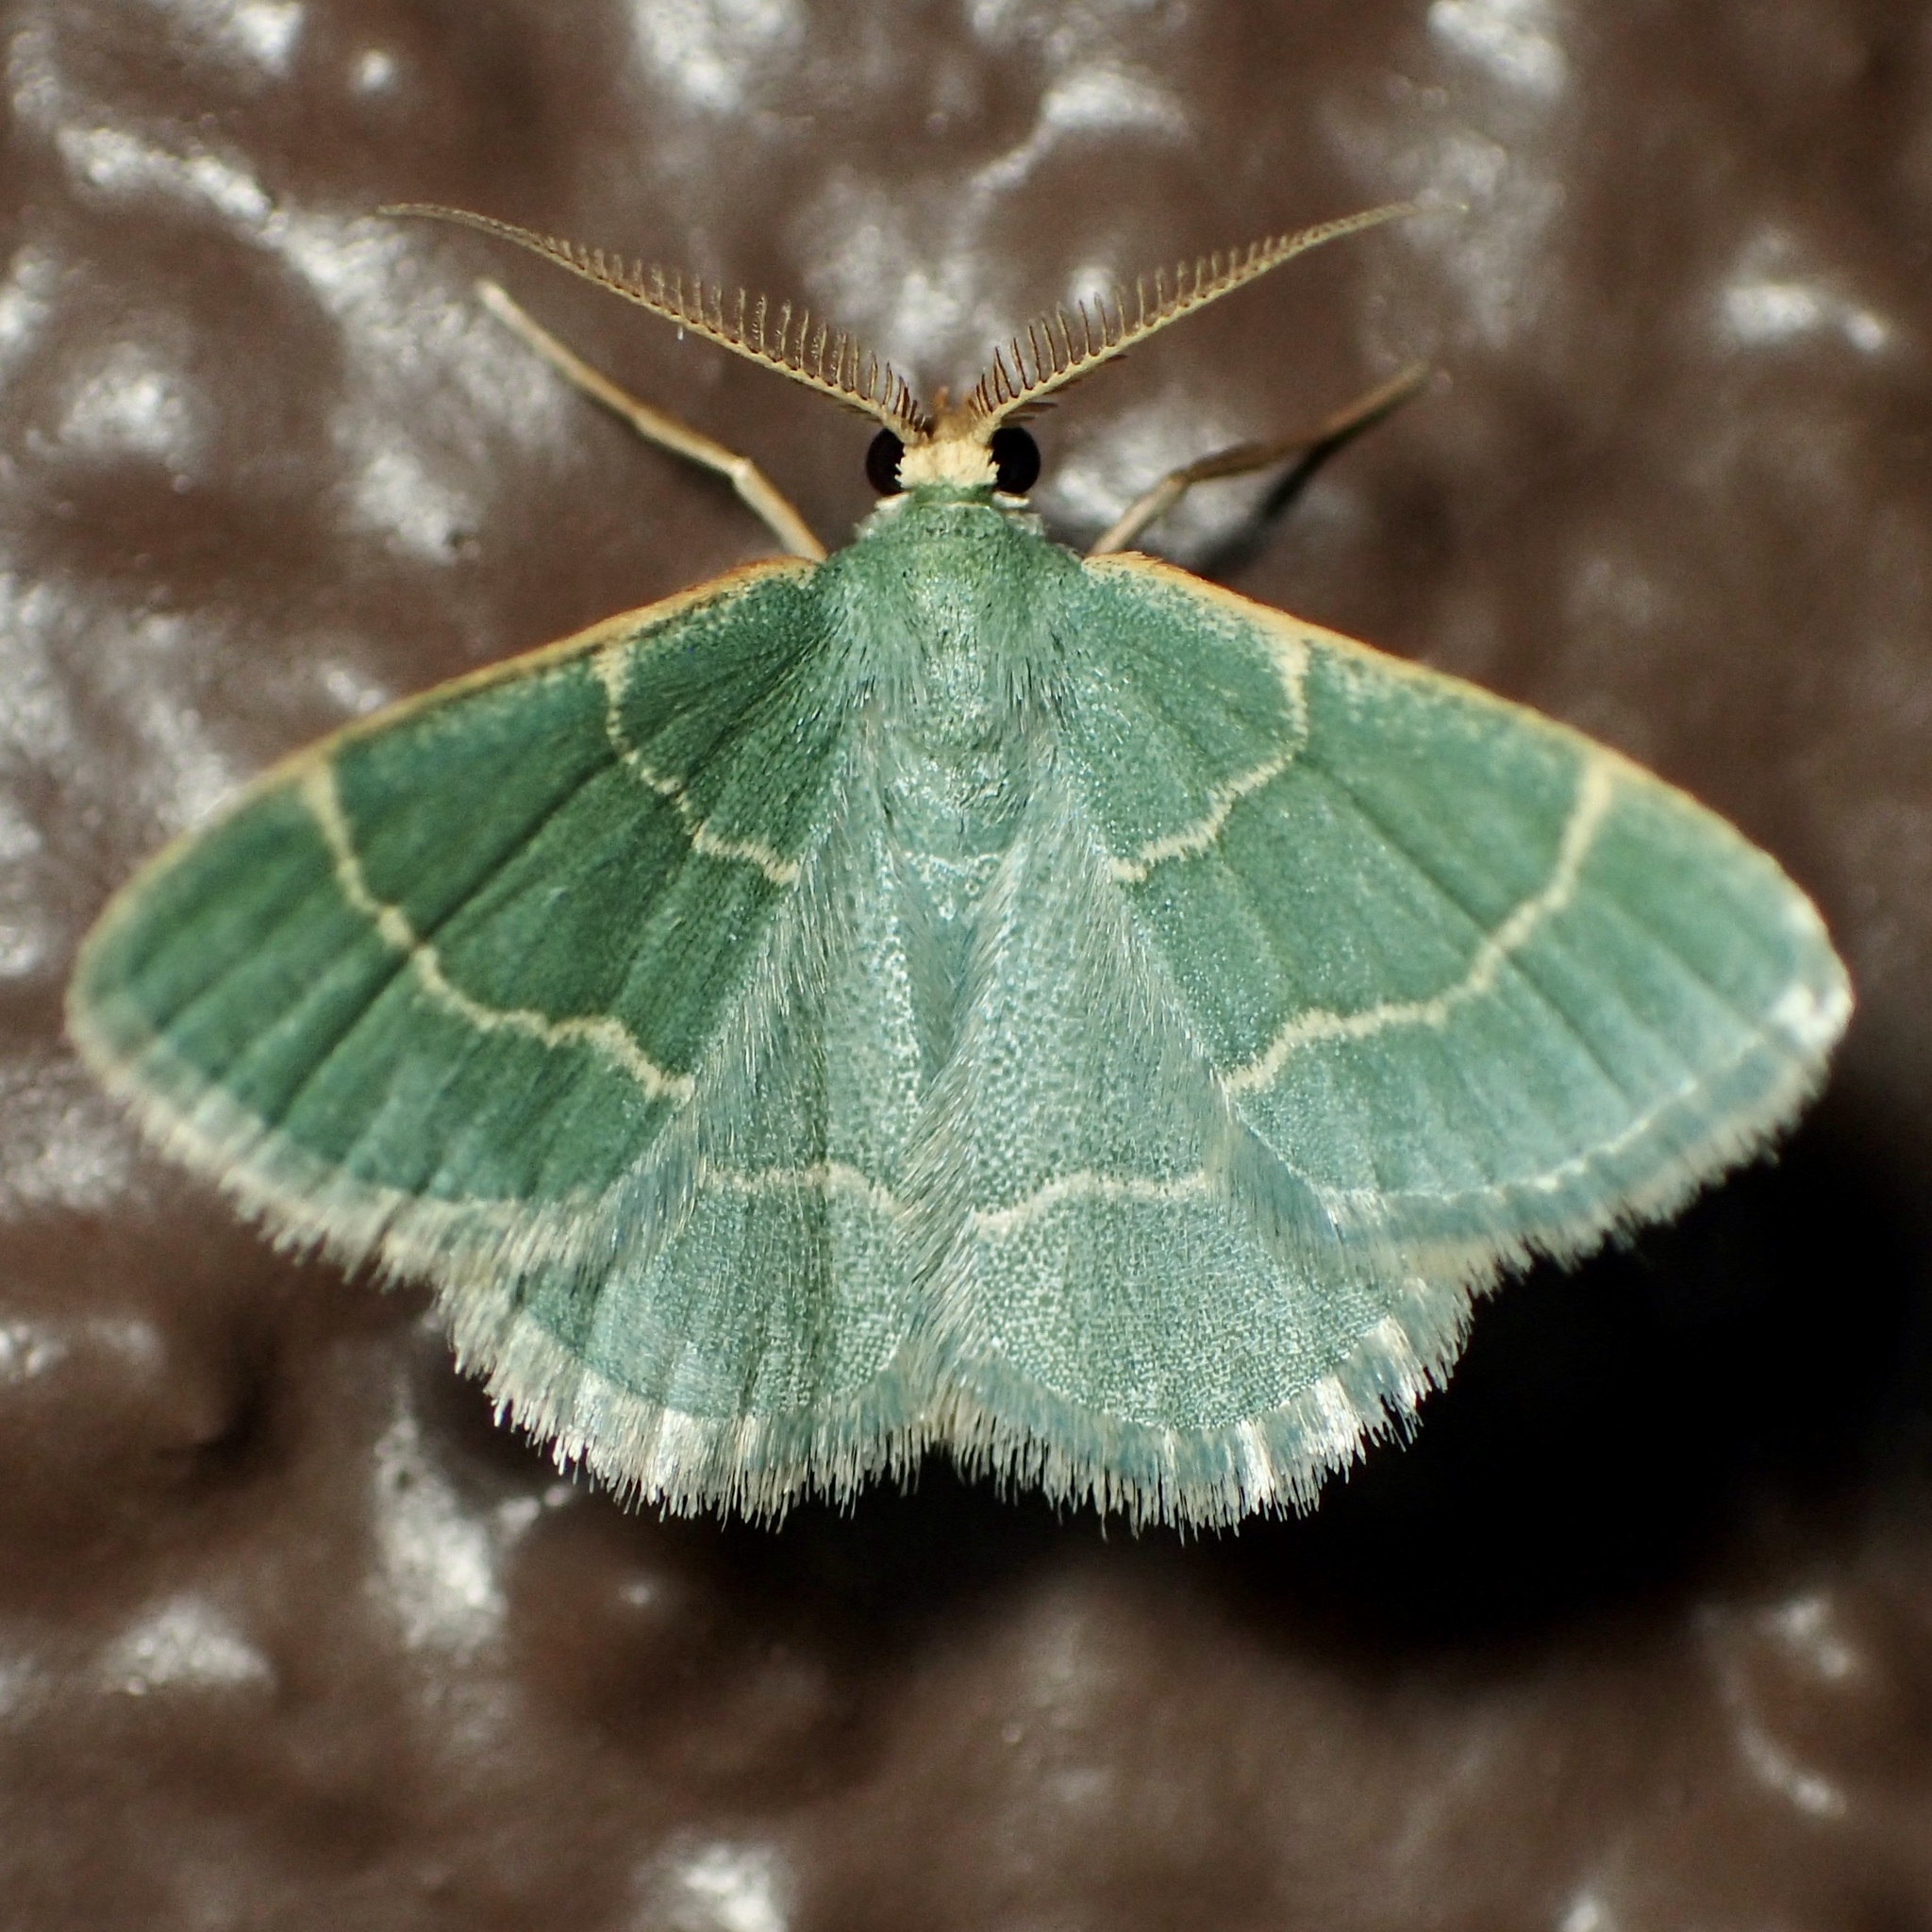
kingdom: Animalia
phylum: Arthropoda
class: Insecta
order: Lepidoptera
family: Geometridae
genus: Chlorochlamys
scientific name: Chlorochlamys phyllinaria
